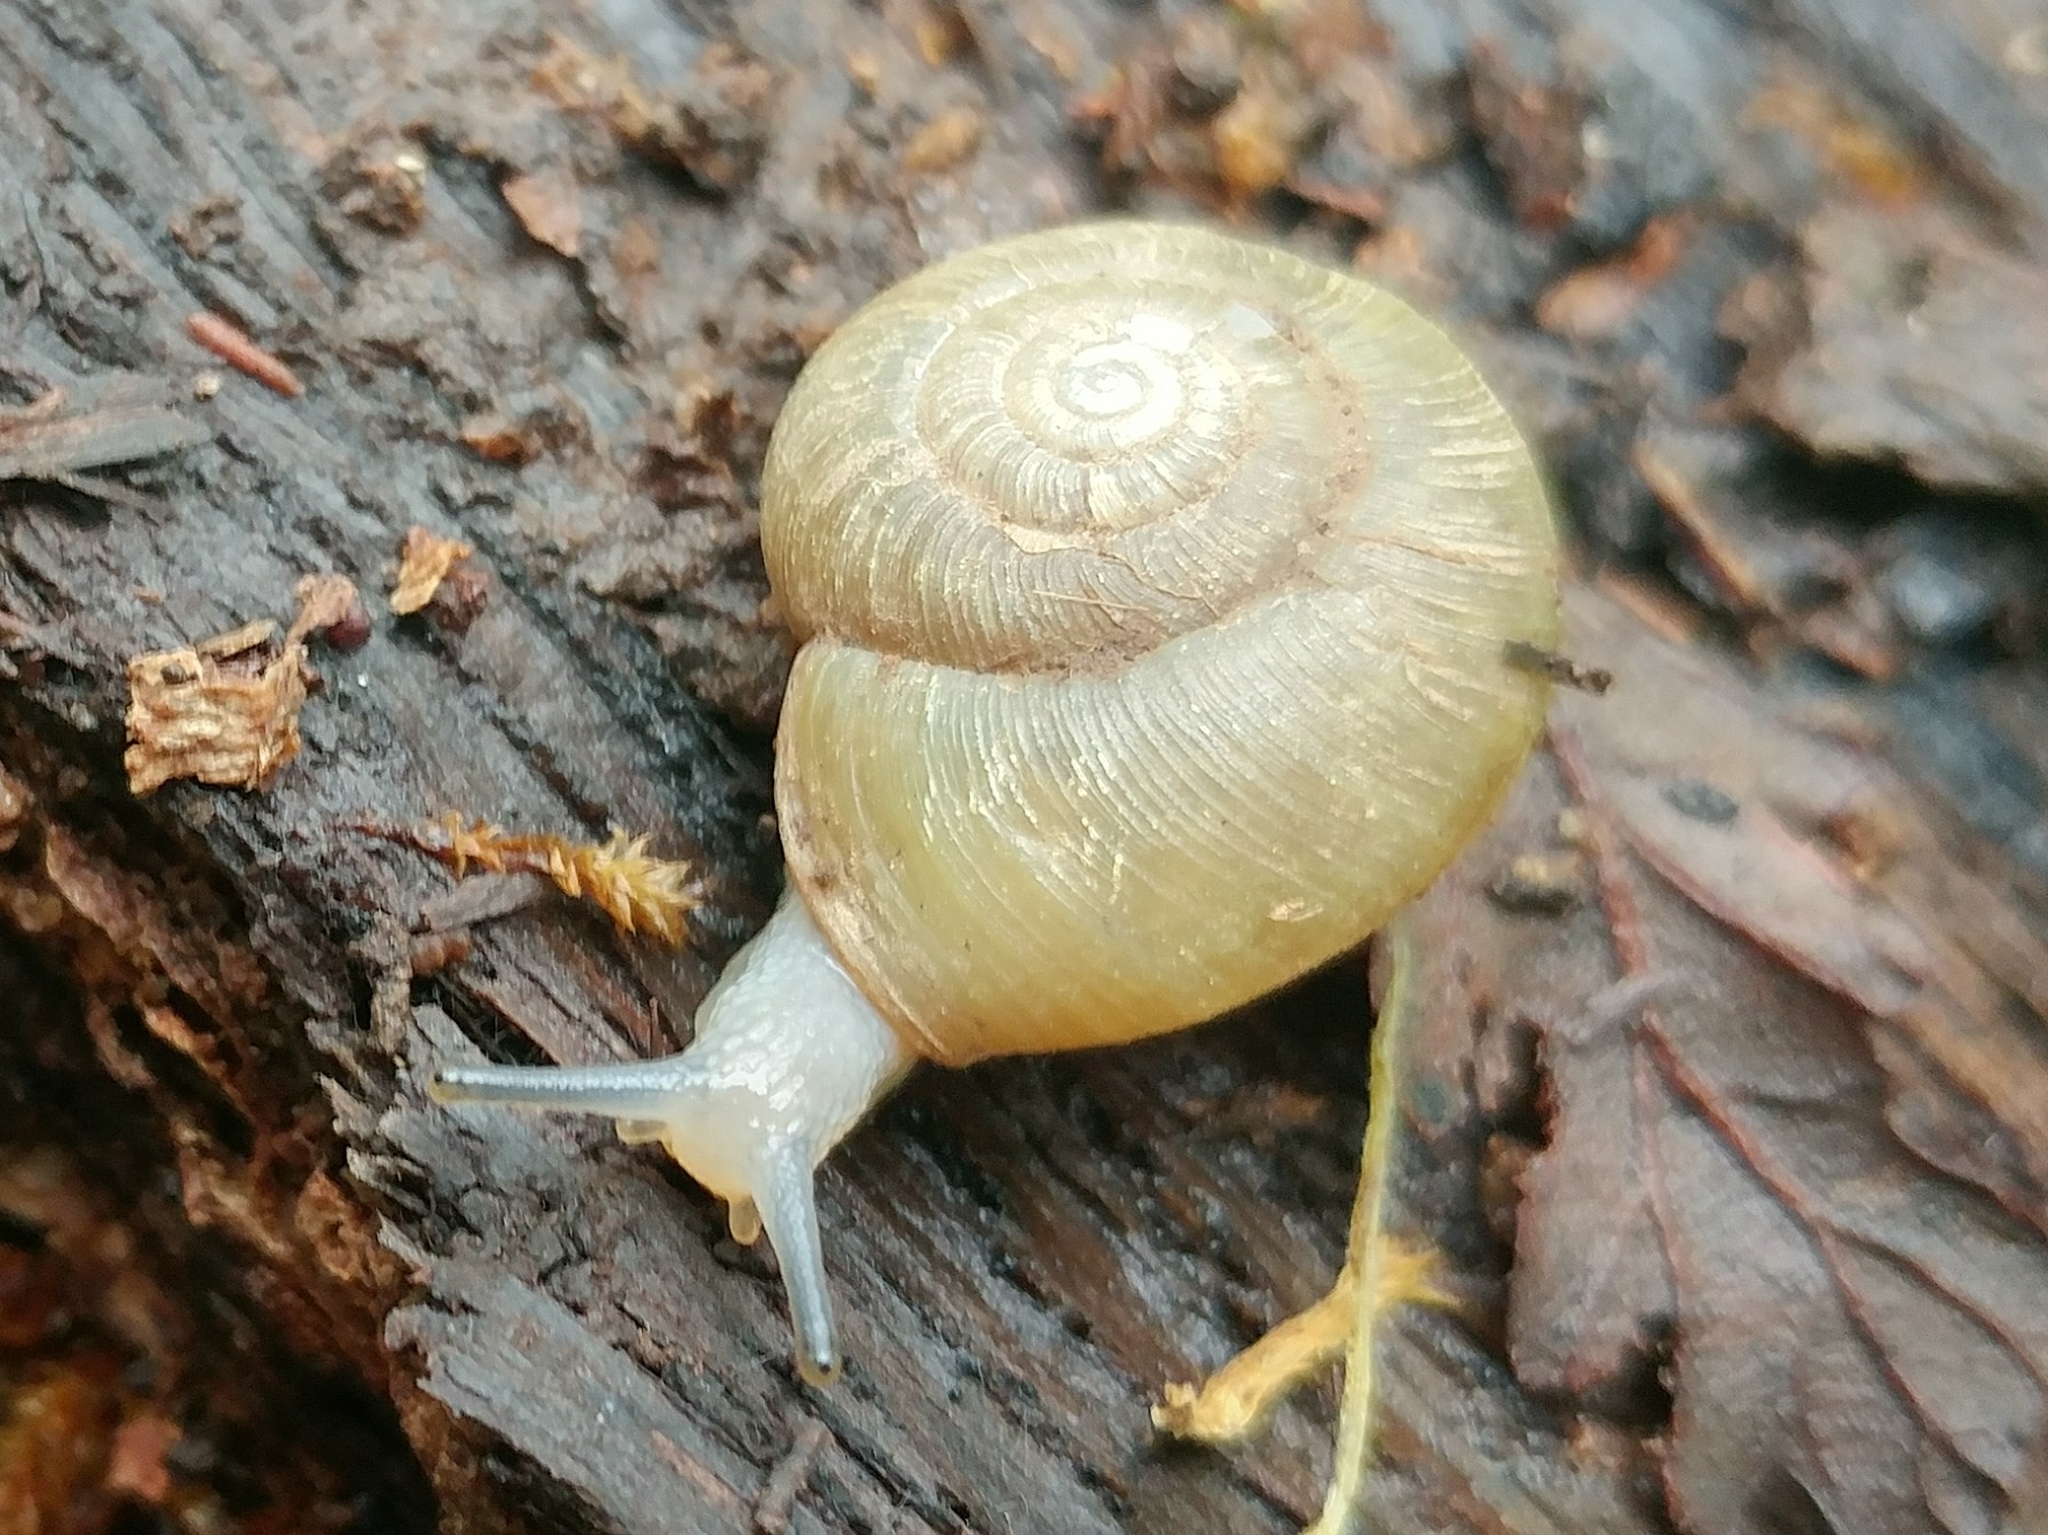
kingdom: Animalia
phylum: Mollusca
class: Gastropoda
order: Stylommatophora
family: Haplotrematidae
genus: Ancotrema
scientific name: Ancotrema sportella
